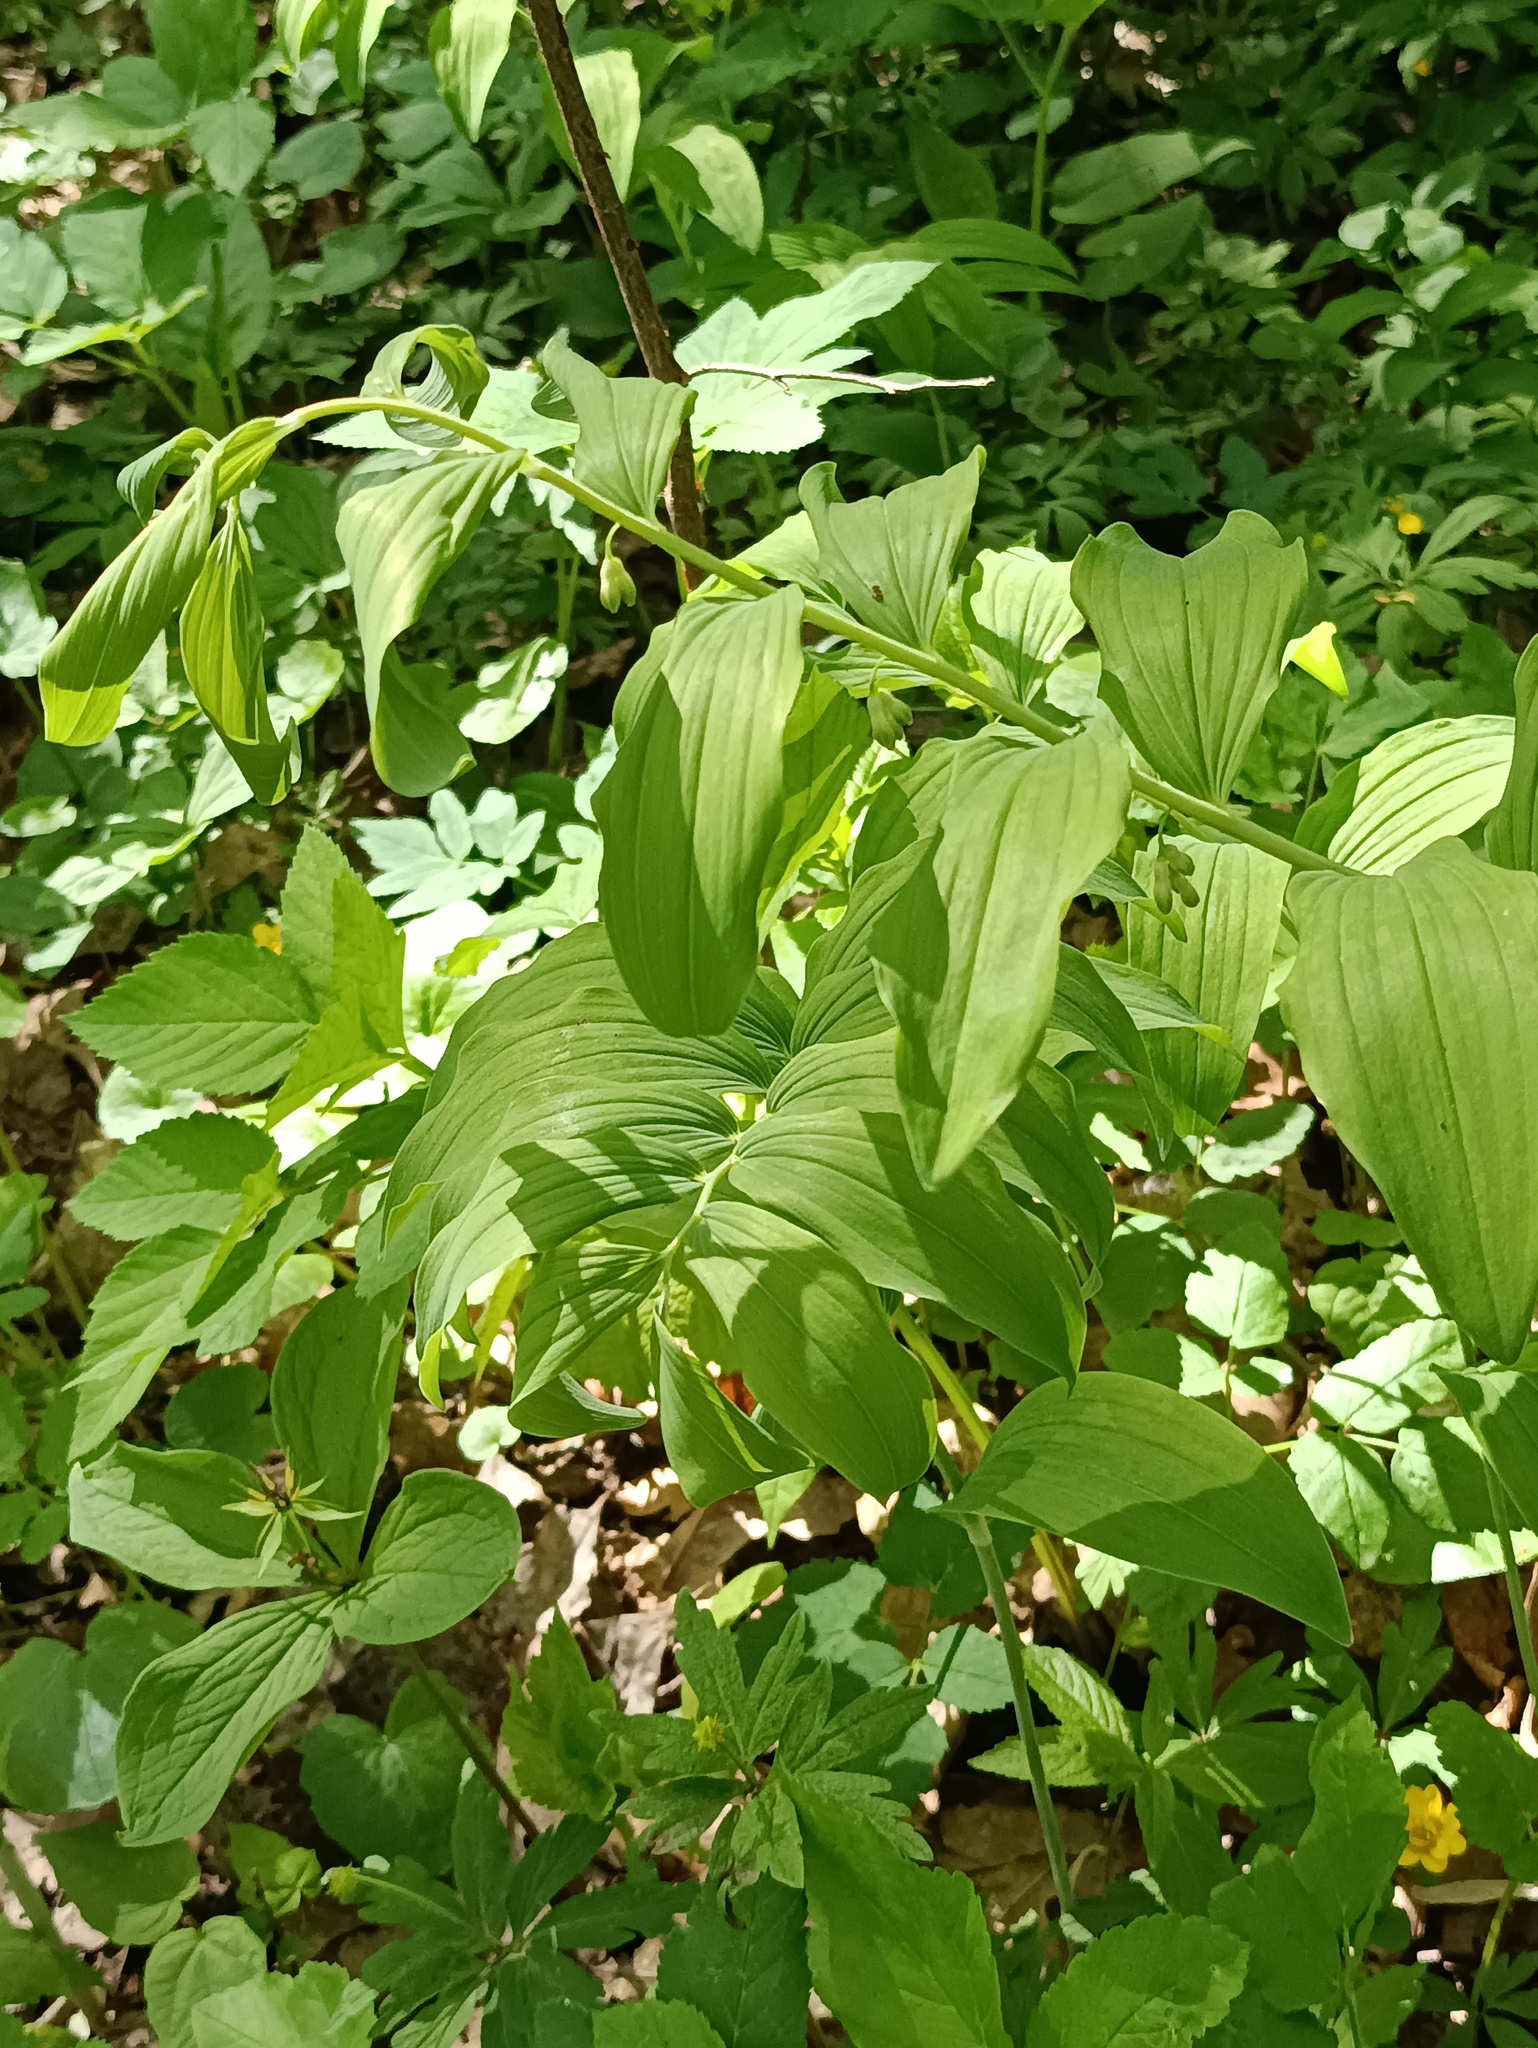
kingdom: Plantae
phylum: Tracheophyta
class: Liliopsida
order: Asparagales
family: Asparagaceae
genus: Polygonatum
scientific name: Polygonatum multiflorum
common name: Solomon's-seal
